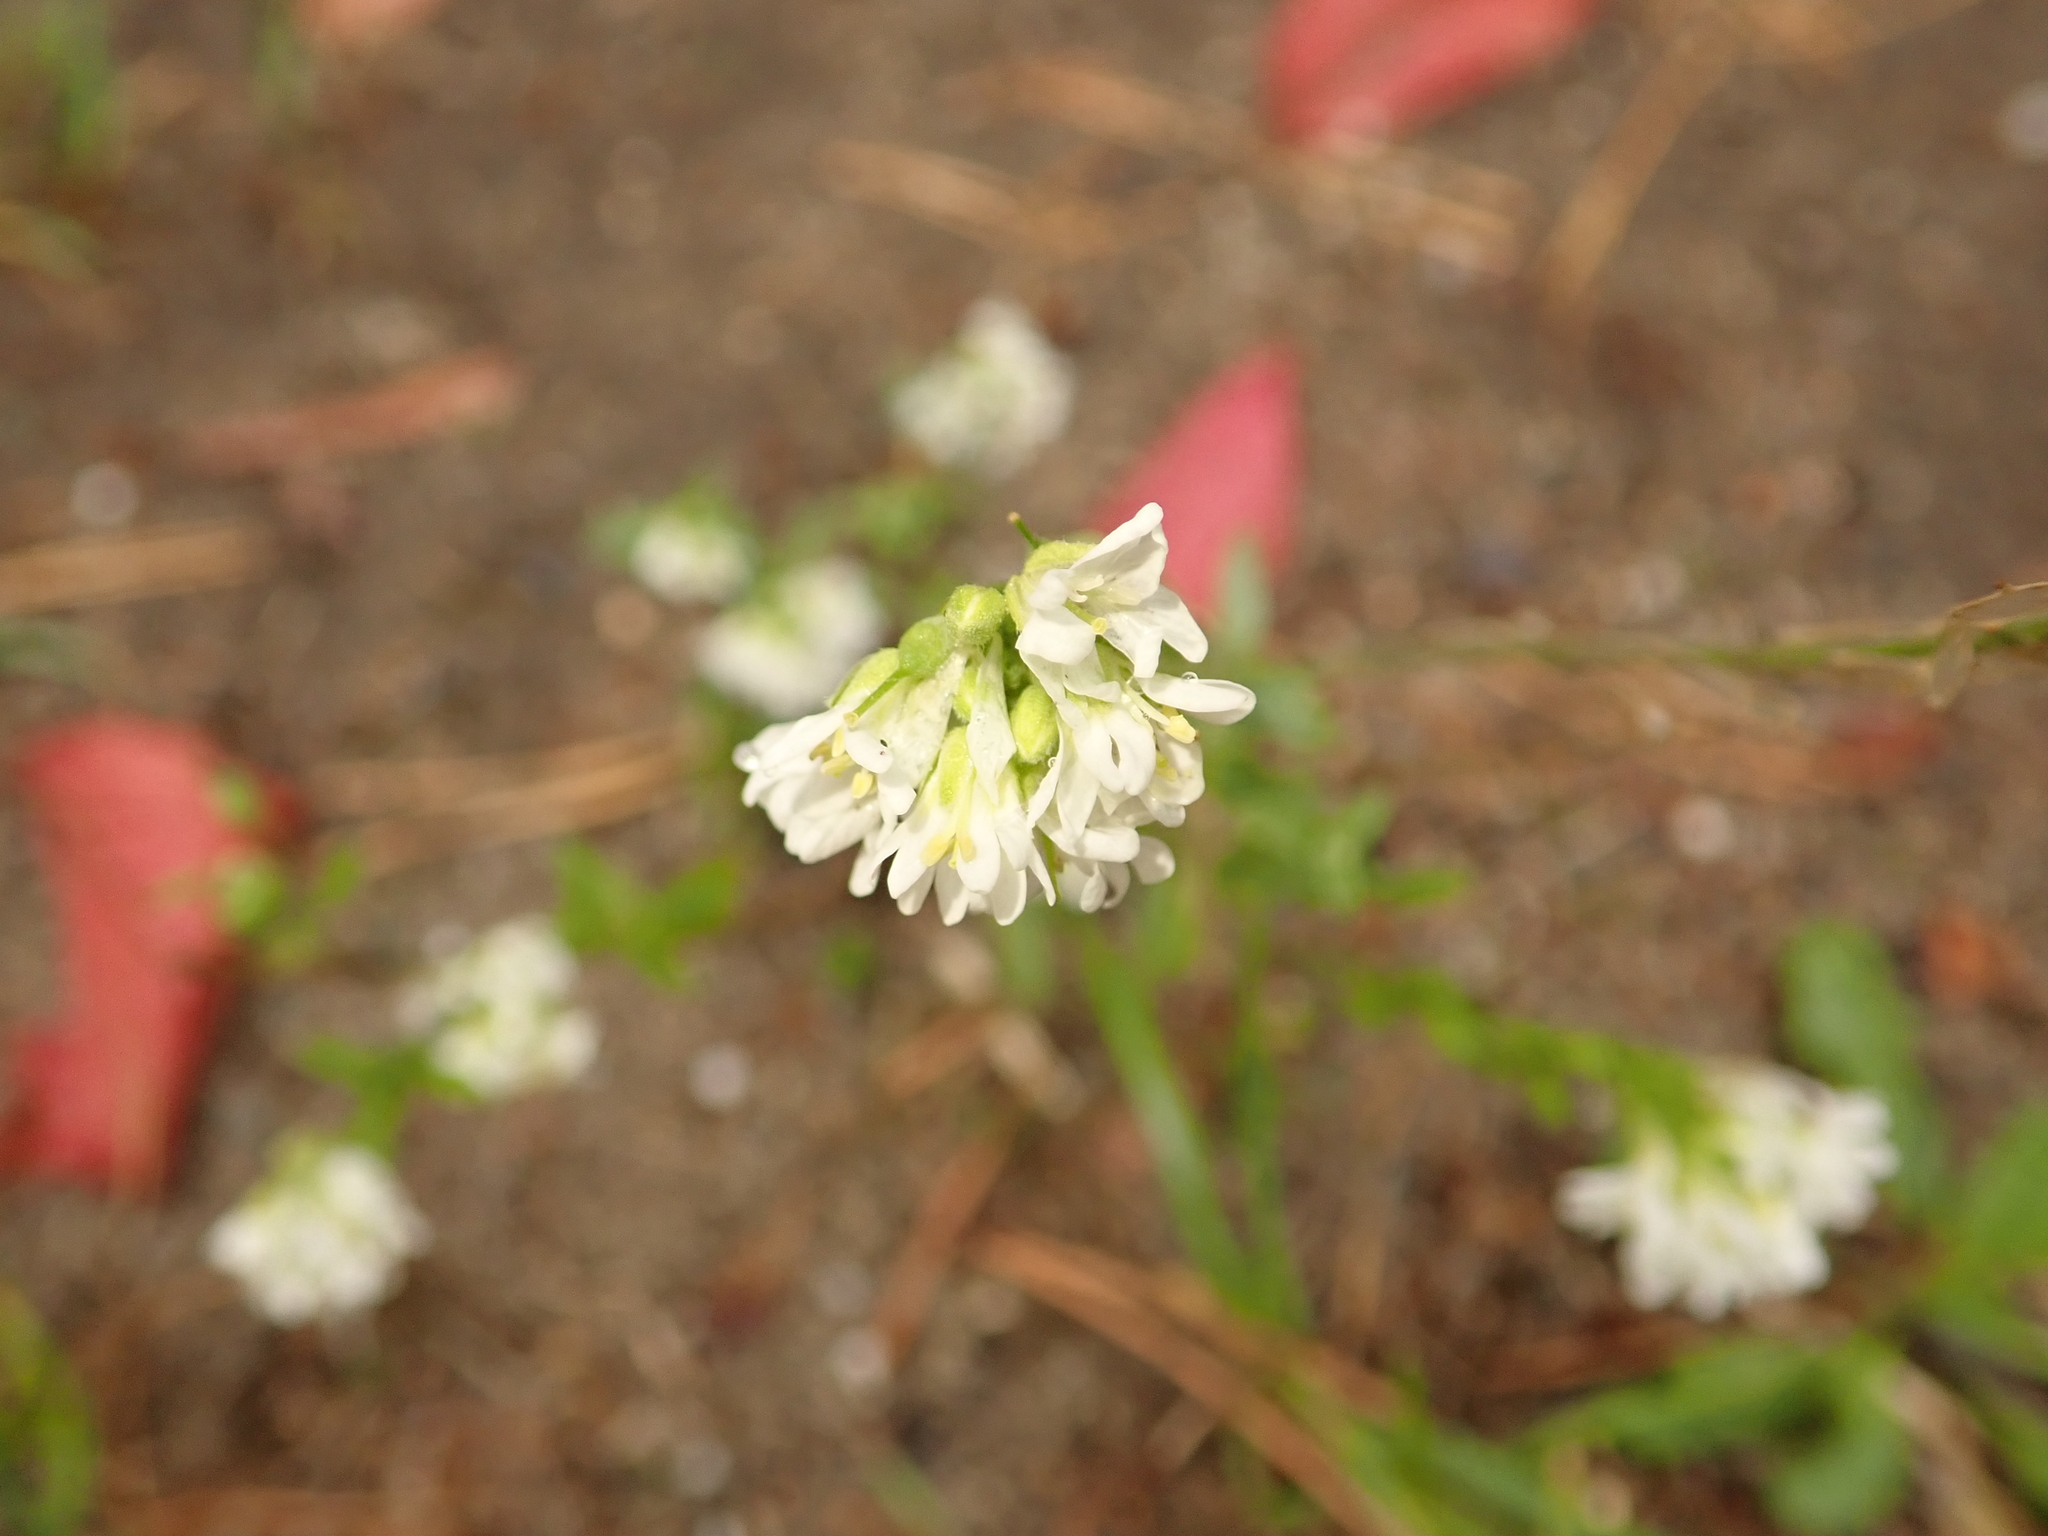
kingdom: Plantae
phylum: Tracheophyta
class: Magnoliopsida
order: Brassicales
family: Brassicaceae
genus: Berteroa
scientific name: Berteroa incana
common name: Hoary alison
